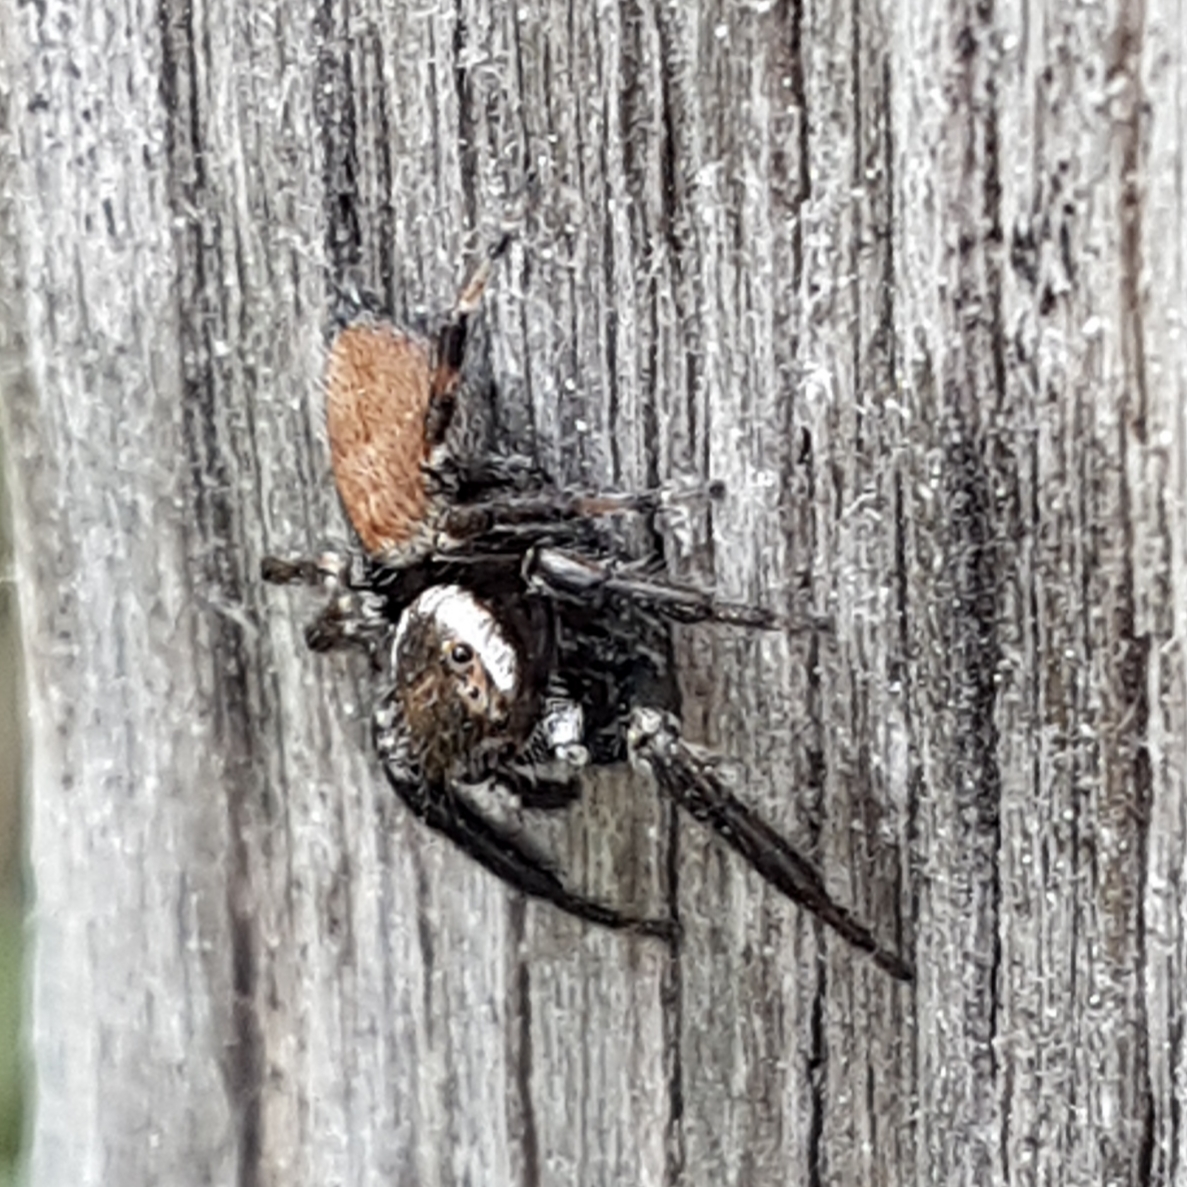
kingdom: Animalia
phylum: Arthropoda
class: Arachnida
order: Araneae
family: Salticidae
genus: Evarcha
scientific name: Evarcha jucunda
